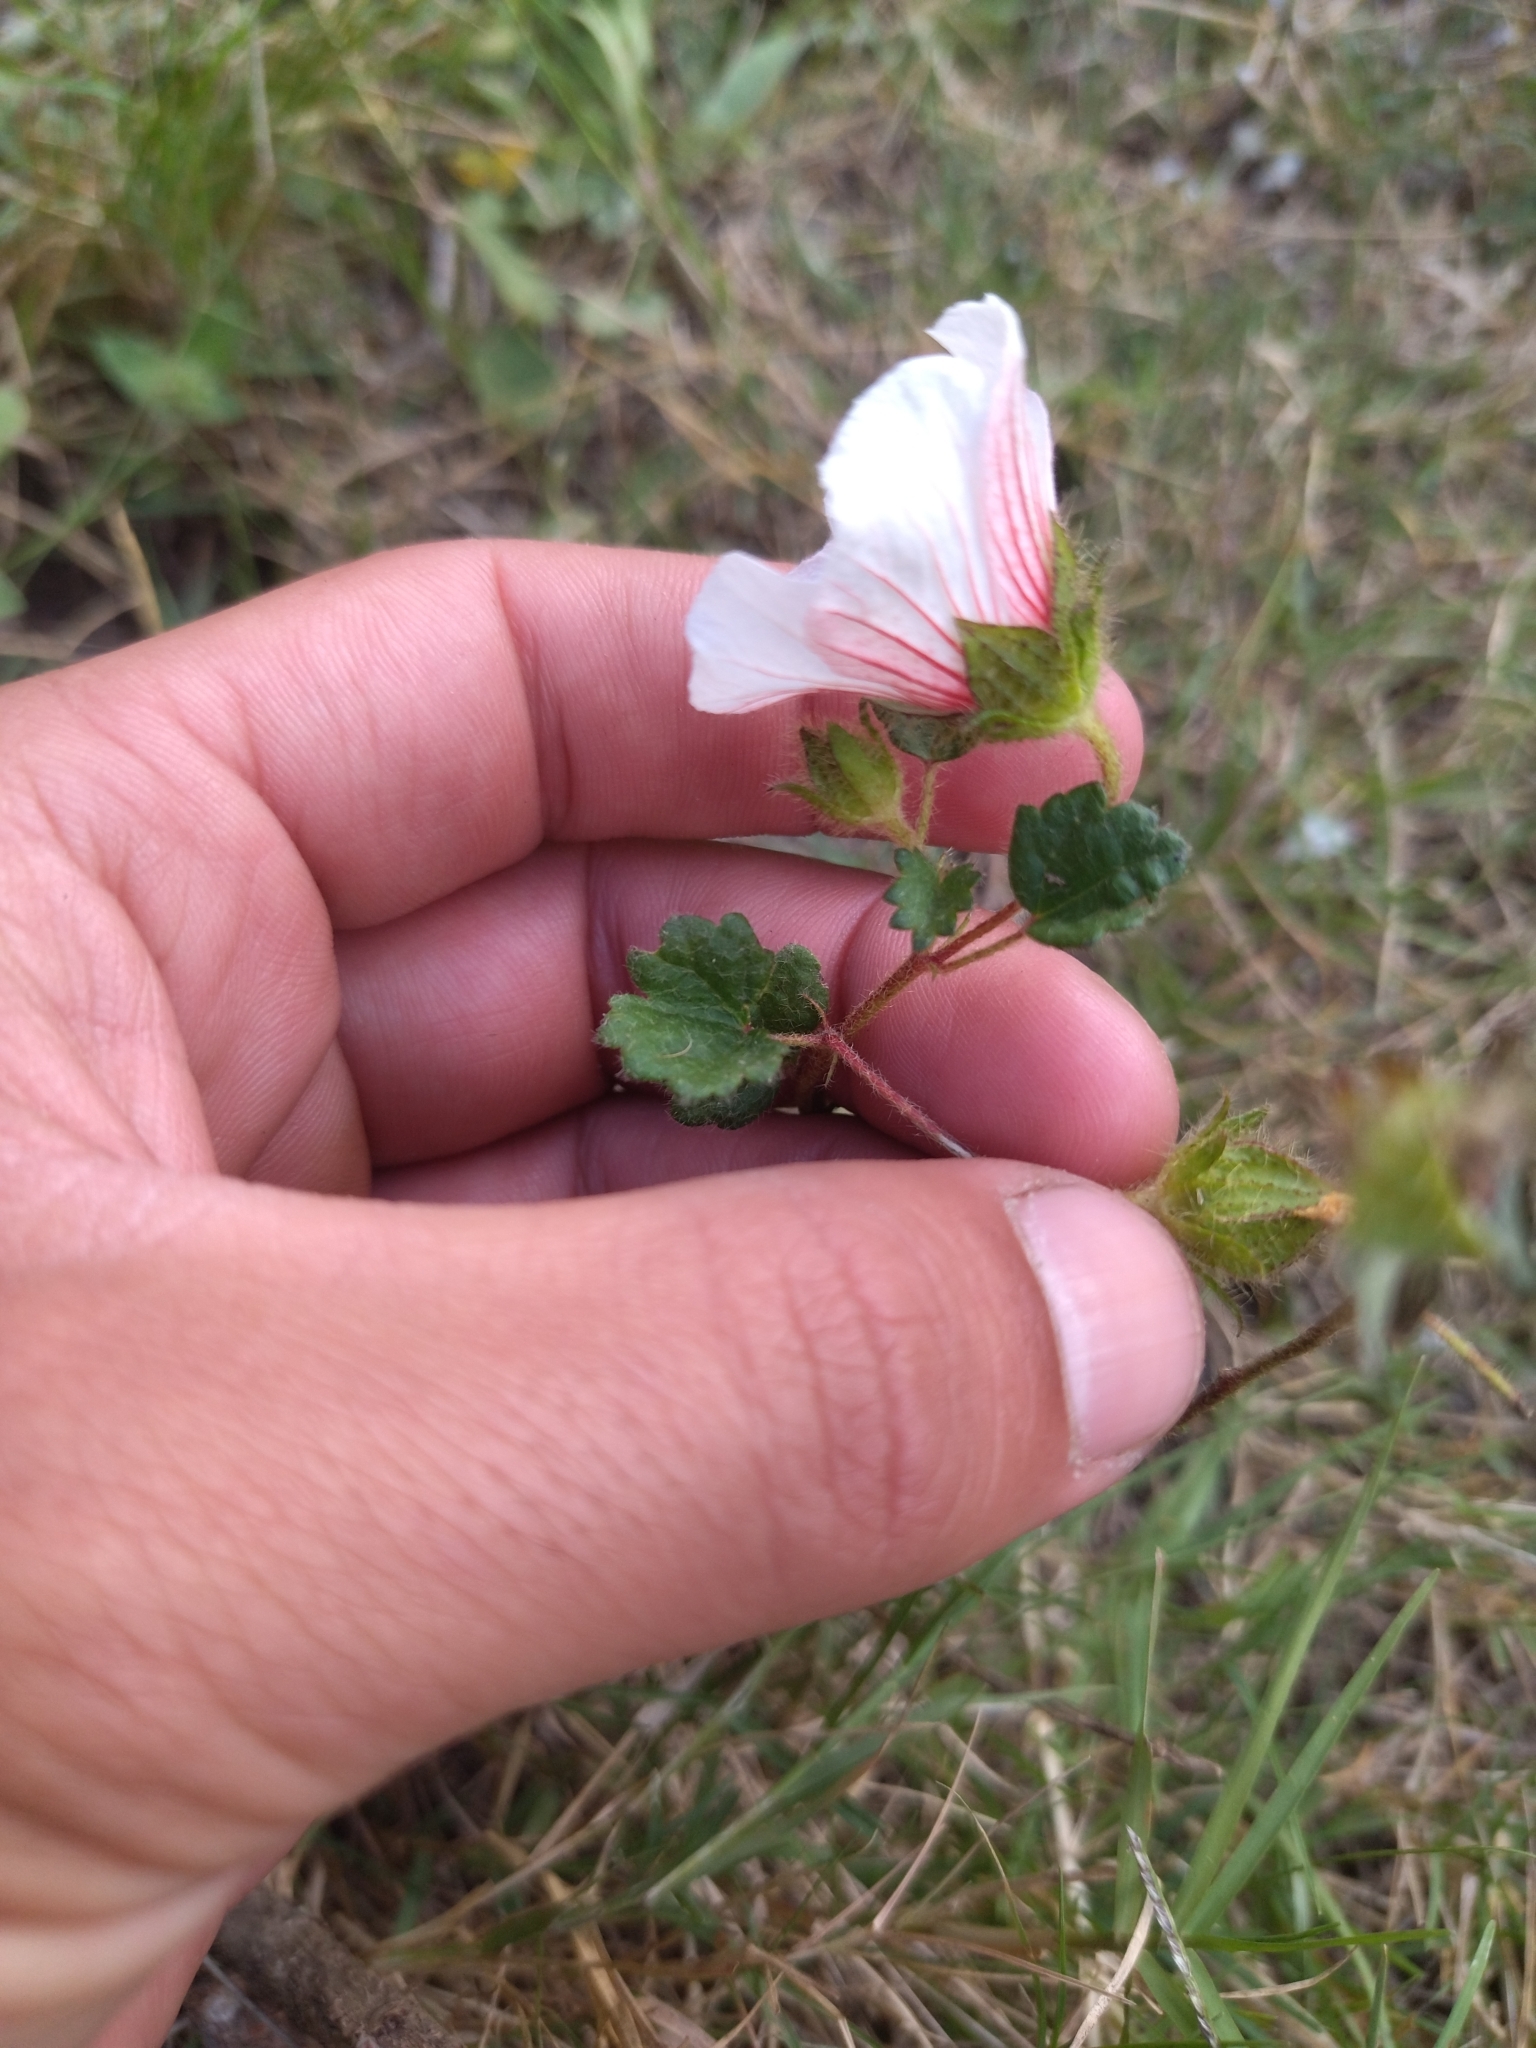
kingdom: Plantae
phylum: Tracheophyta
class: Magnoliopsida
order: Malvales
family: Malvaceae
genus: Pavonia
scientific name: Pavonia glechomoides
